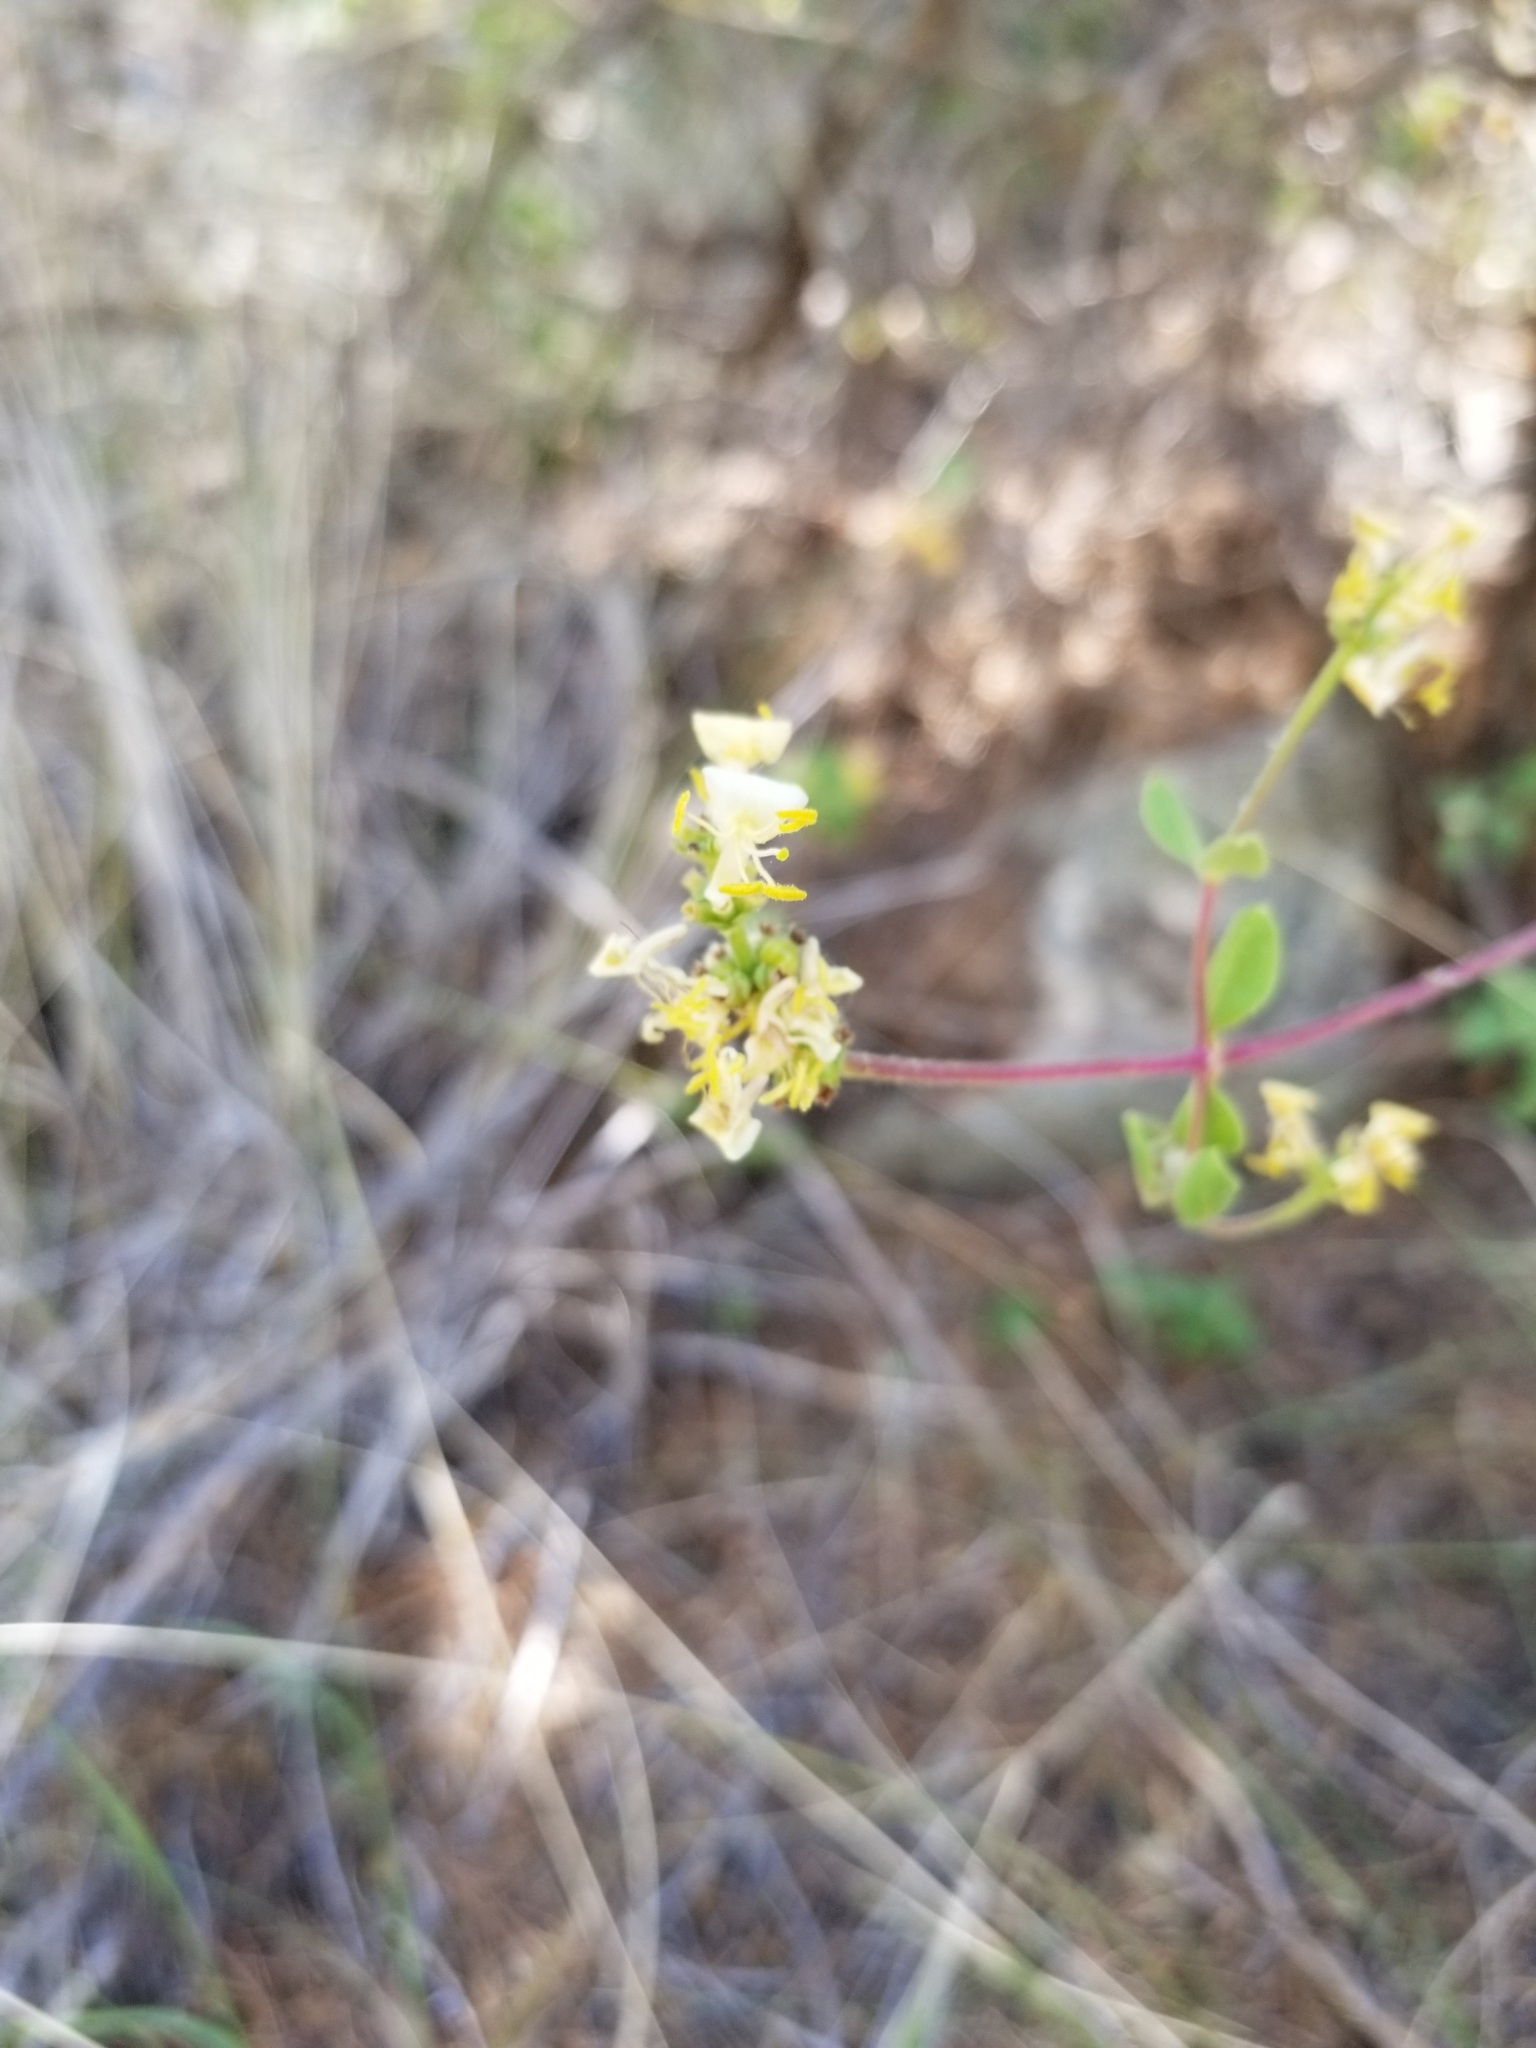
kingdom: Plantae
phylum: Tracheophyta
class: Magnoliopsida
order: Dipsacales
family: Caprifoliaceae
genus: Lonicera
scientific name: Lonicera subspicata
